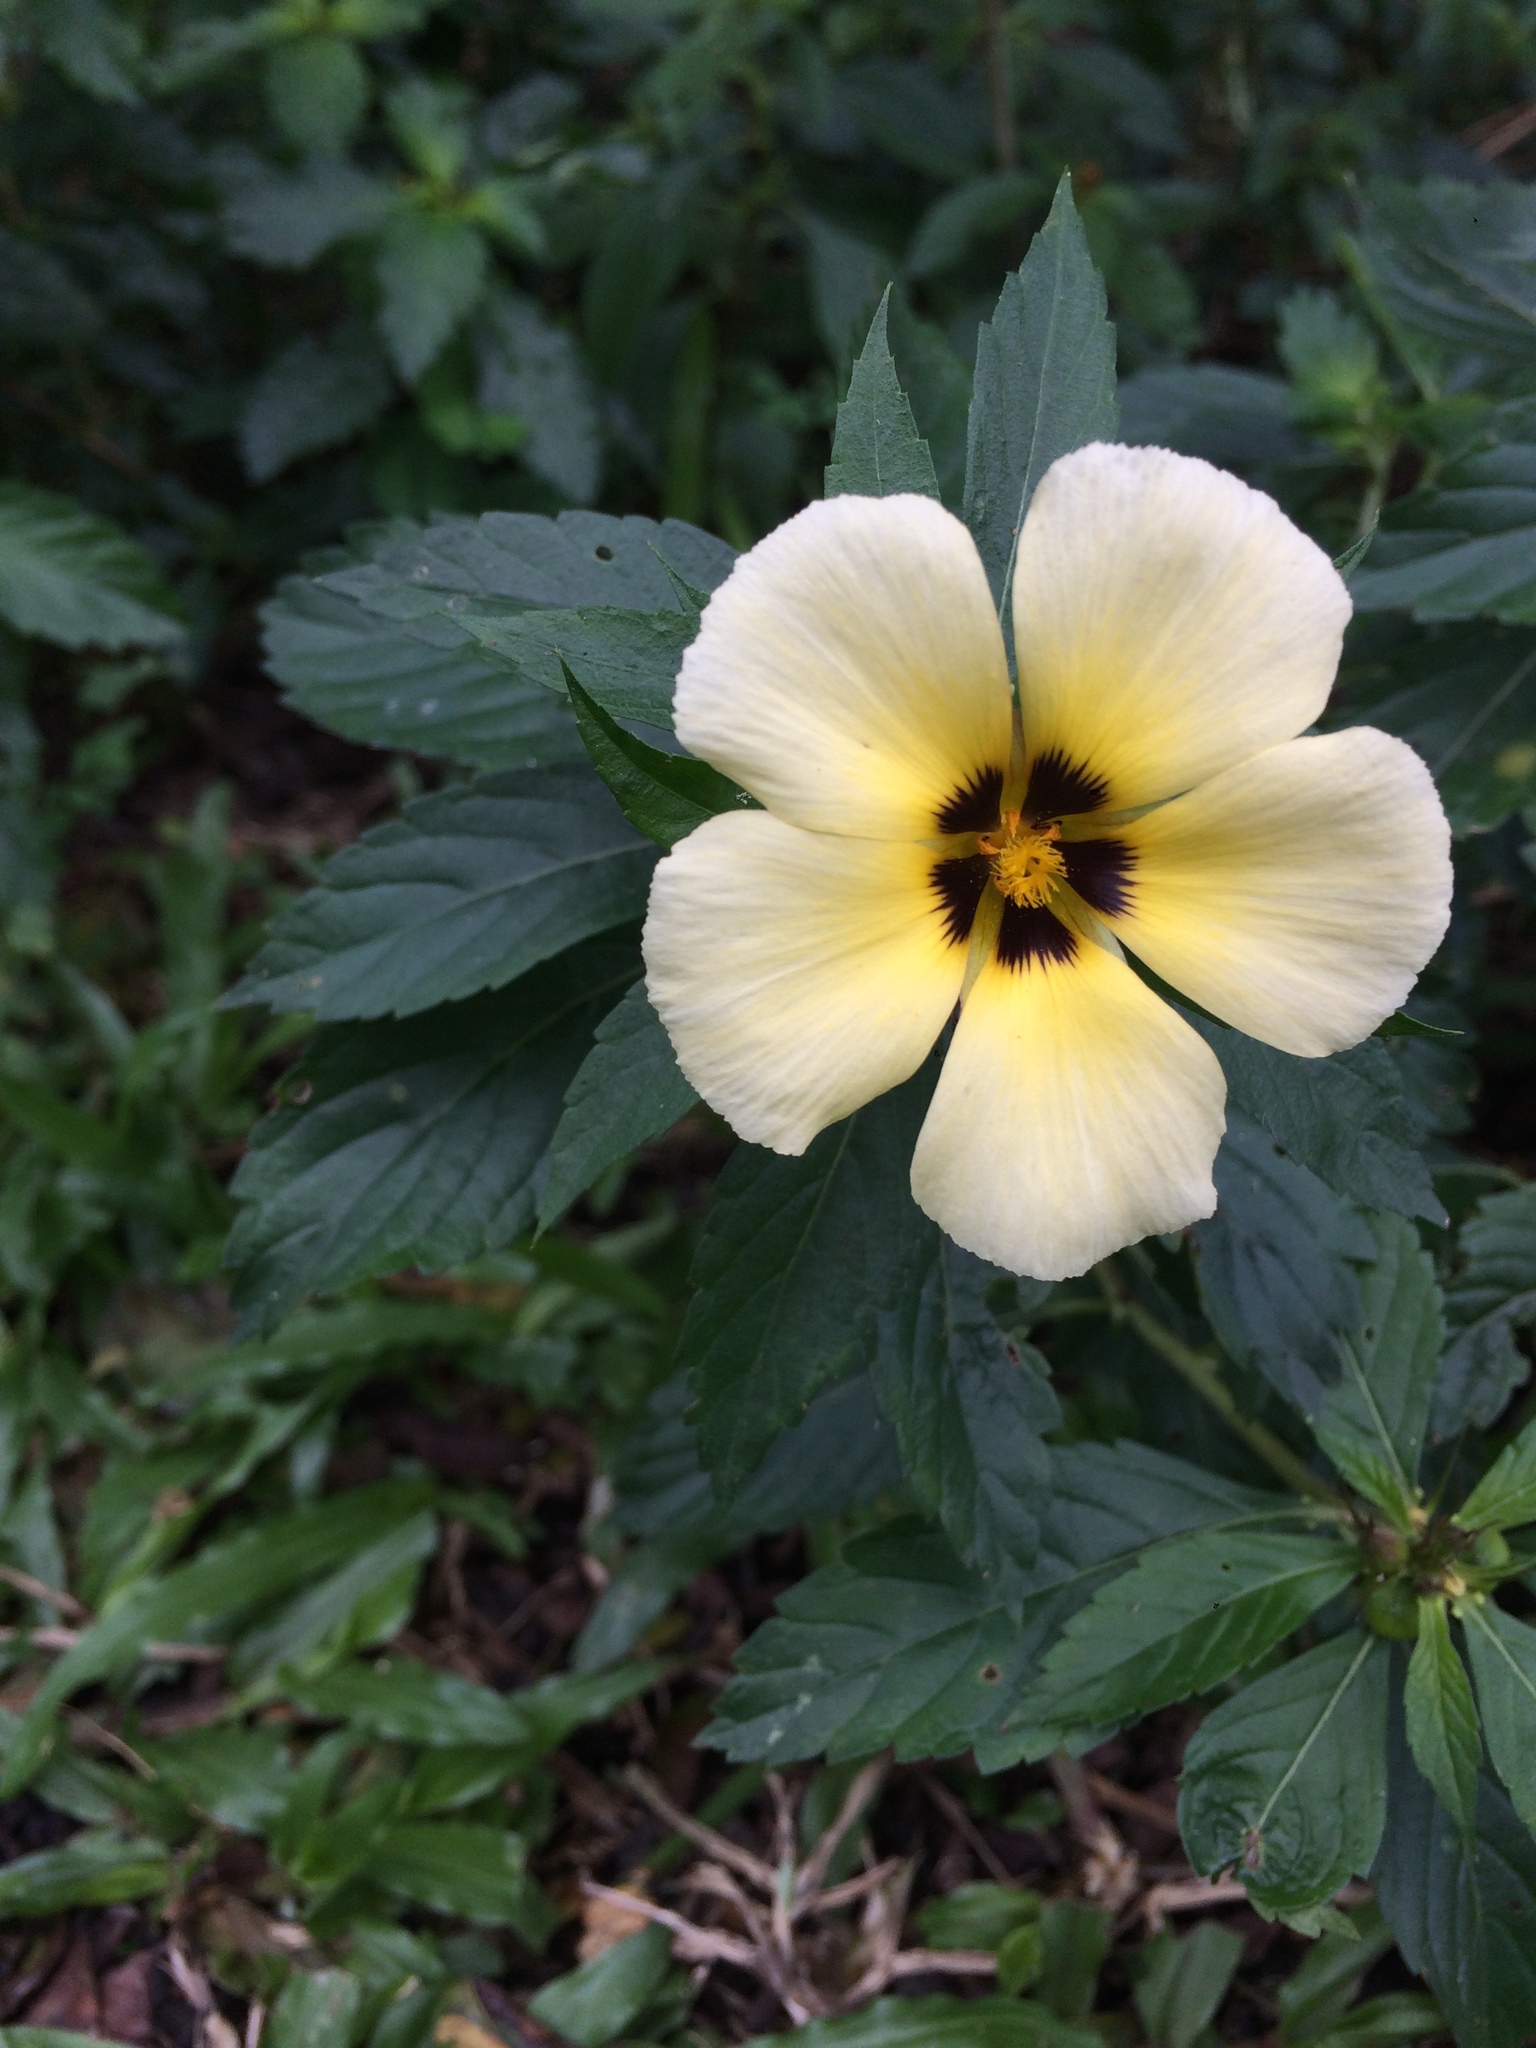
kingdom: Plantae
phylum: Tracheophyta
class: Magnoliopsida
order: Malpighiales
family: Turneraceae
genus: Turnera
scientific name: Turnera subulata
